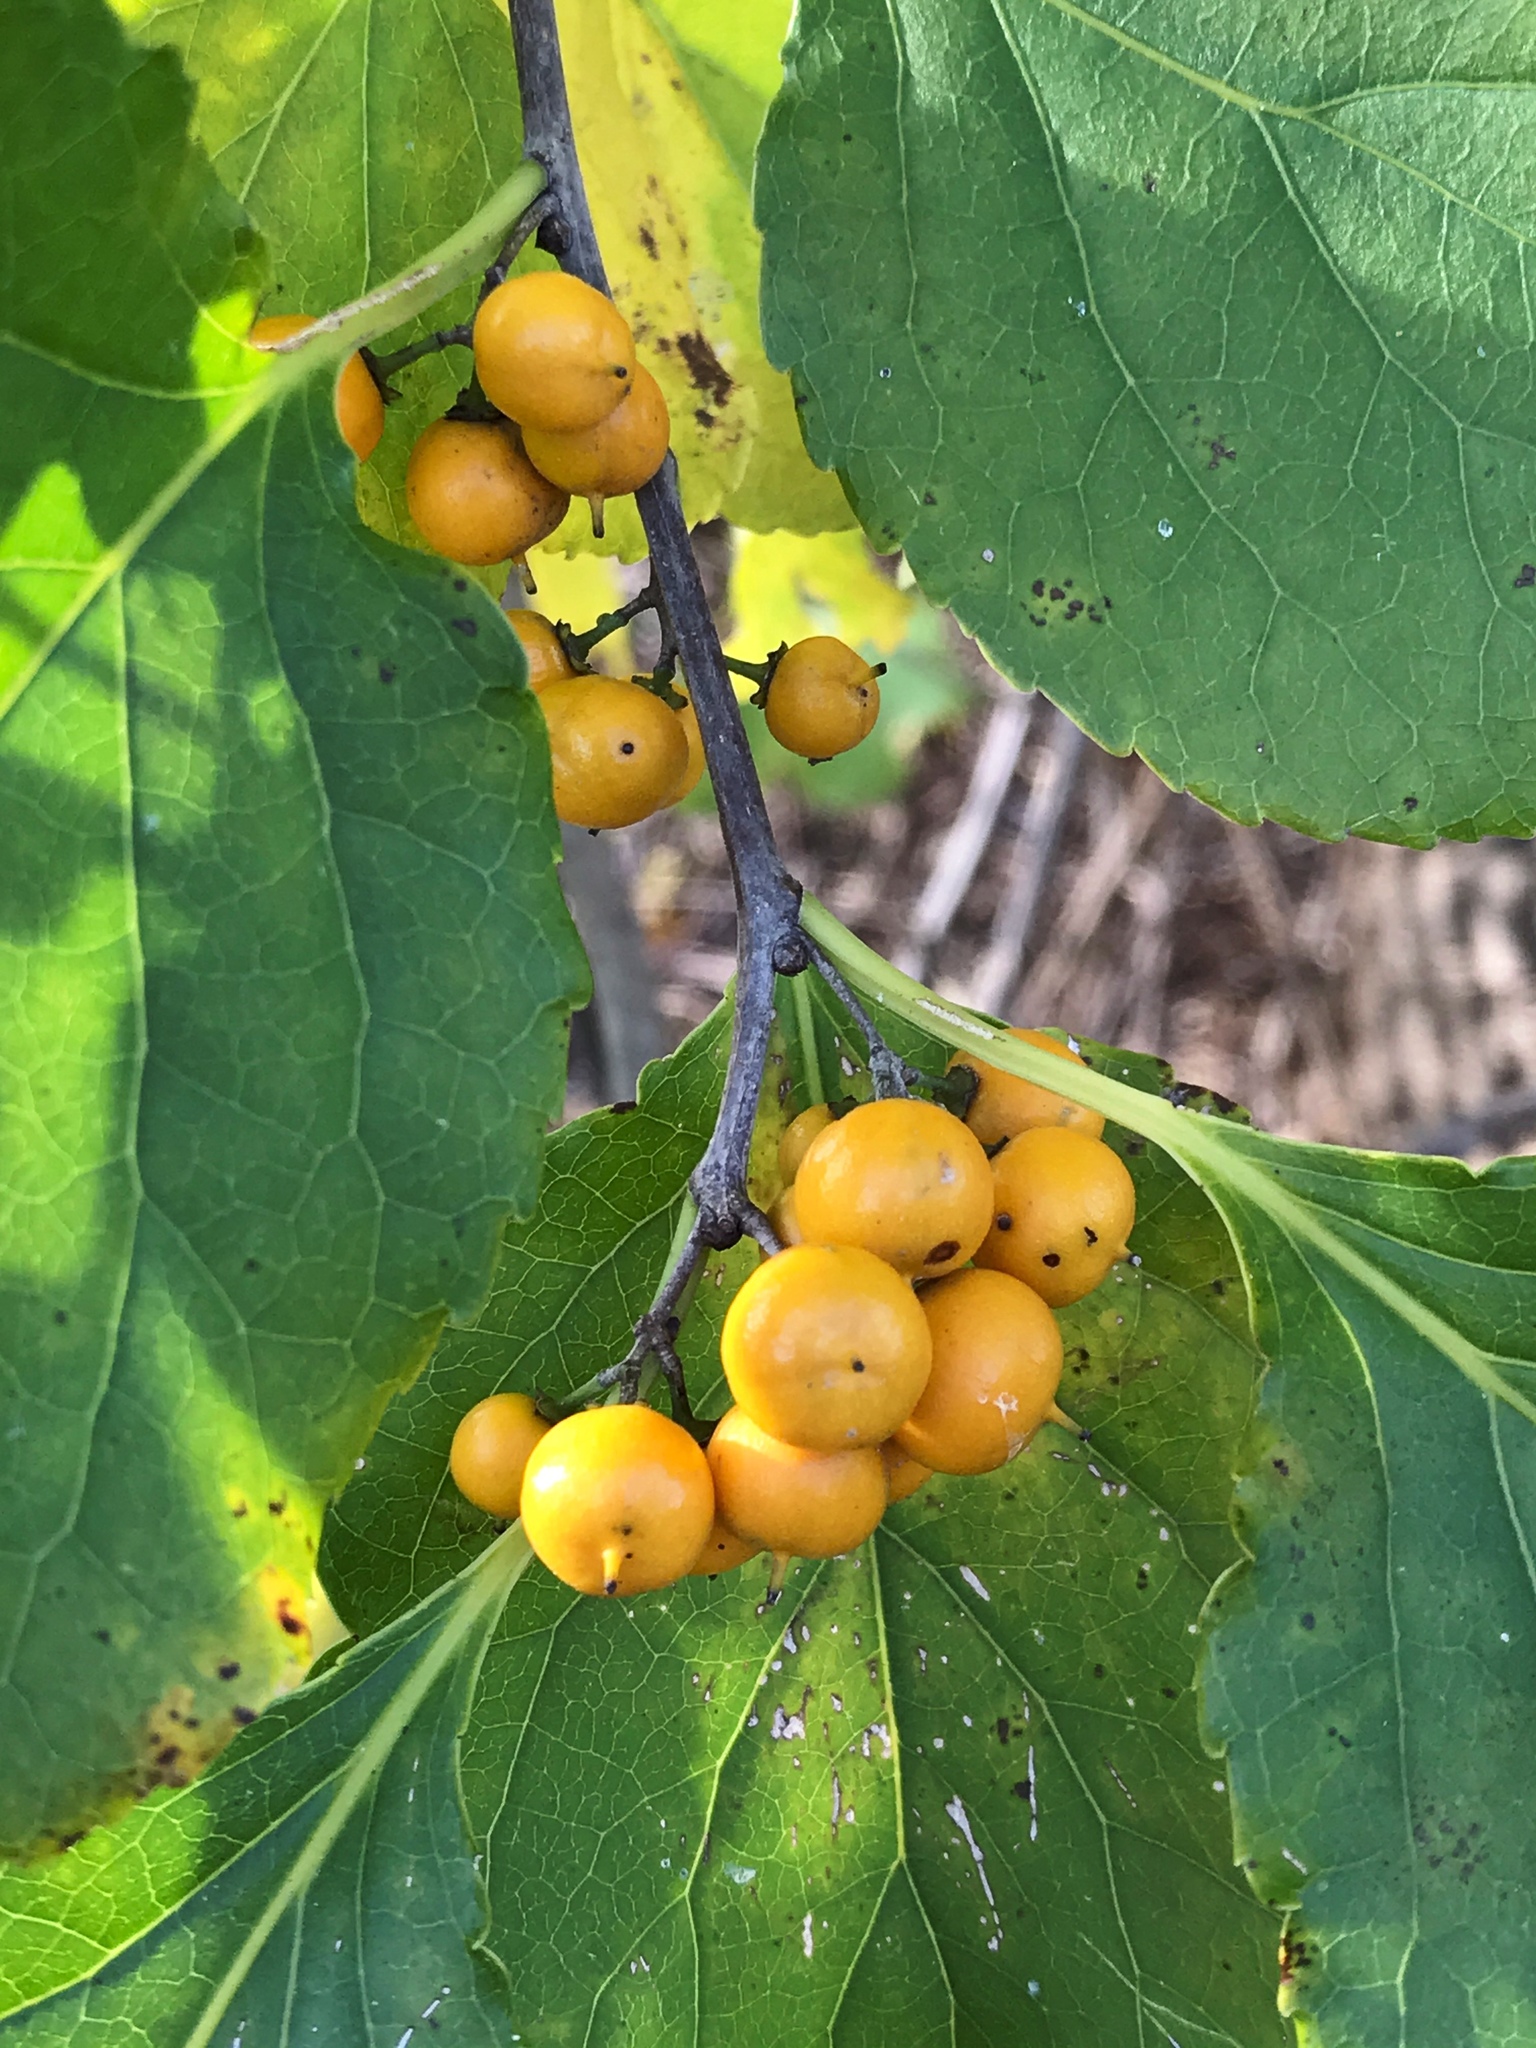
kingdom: Plantae
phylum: Tracheophyta
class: Magnoliopsida
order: Celastrales
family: Celastraceae
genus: Celastrus
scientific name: Celastrus orbiculatus
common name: Oriental bittersweet
